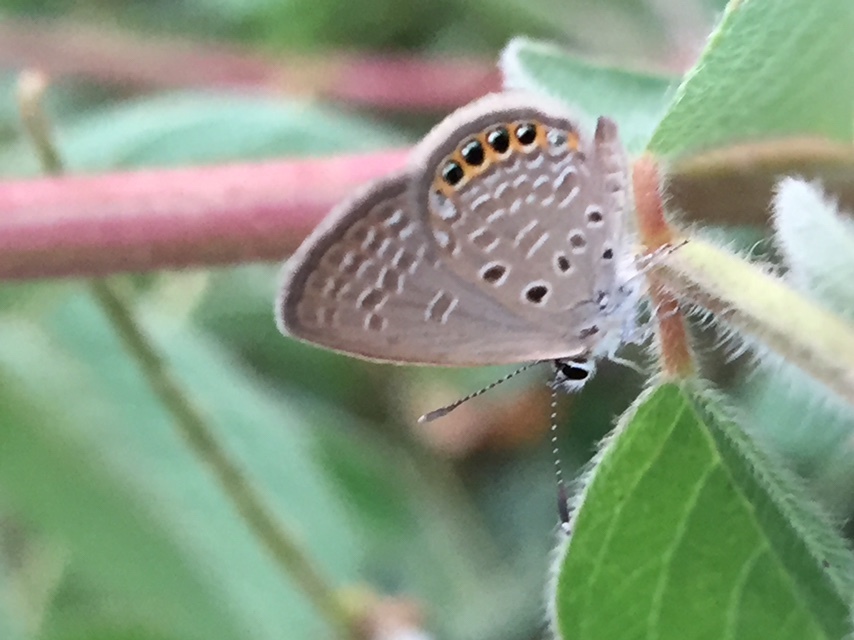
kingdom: Animalia
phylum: Arthropoda
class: Insecta
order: Lepidoptera
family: Lycaenidae
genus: Freyeria
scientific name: Freyeria putli
